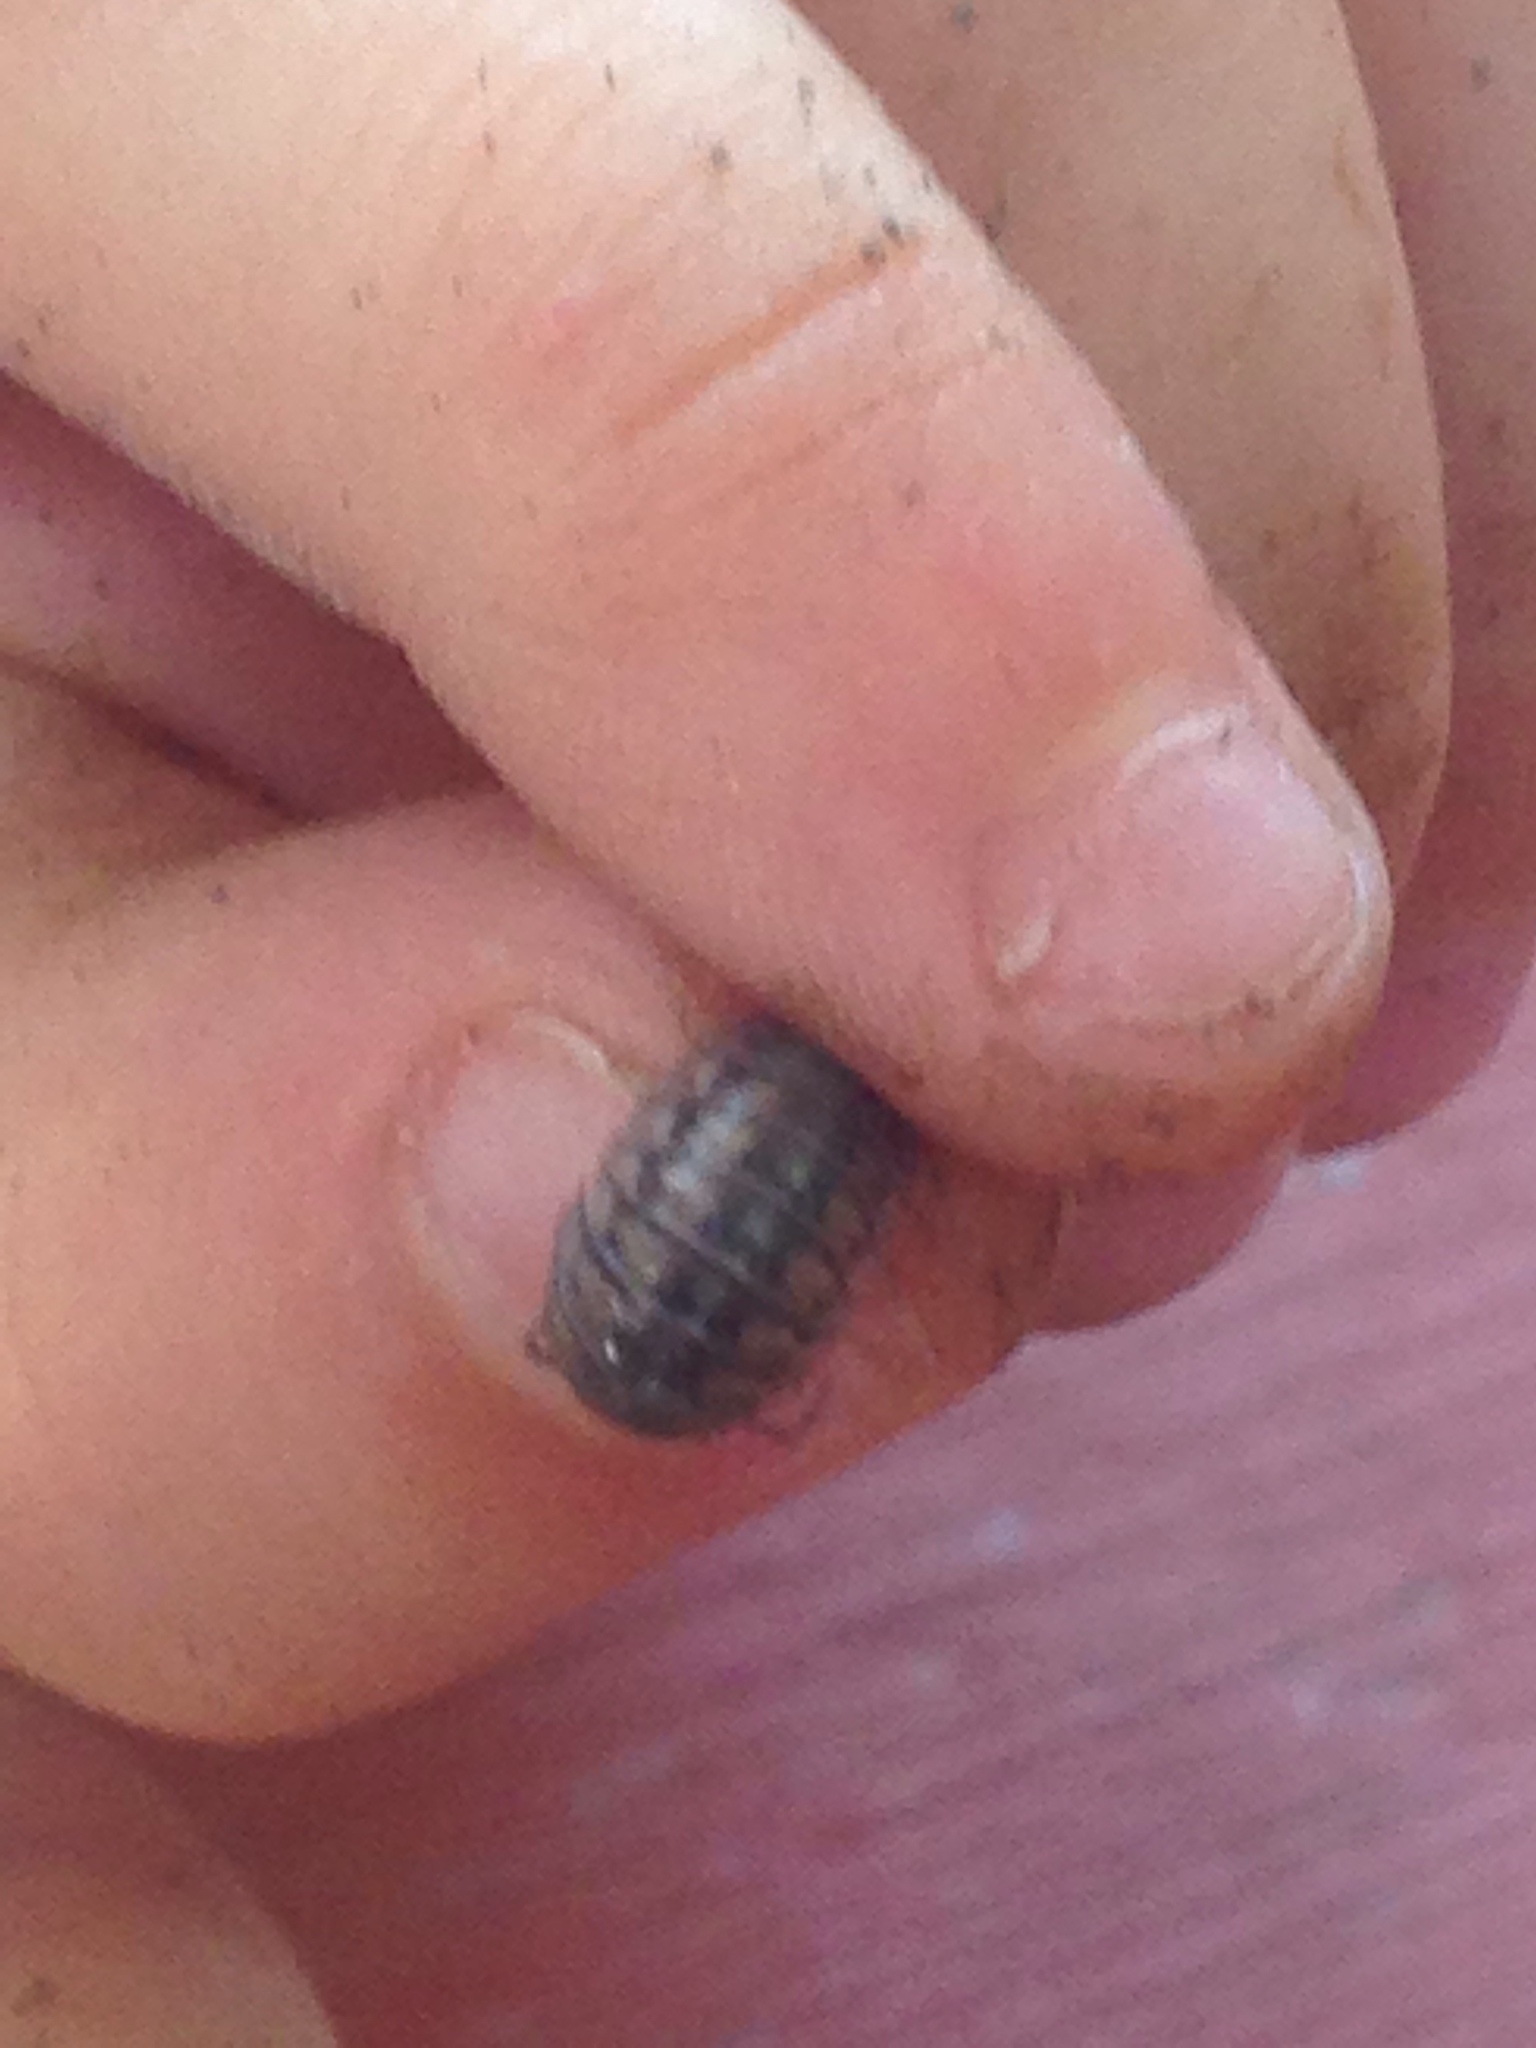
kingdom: Animalia
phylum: Arthropoda
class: Malacostraca
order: Isopoda
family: Armadillidiidae
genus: Armadillidium
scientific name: Armadillidium nasatum
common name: Isopod
